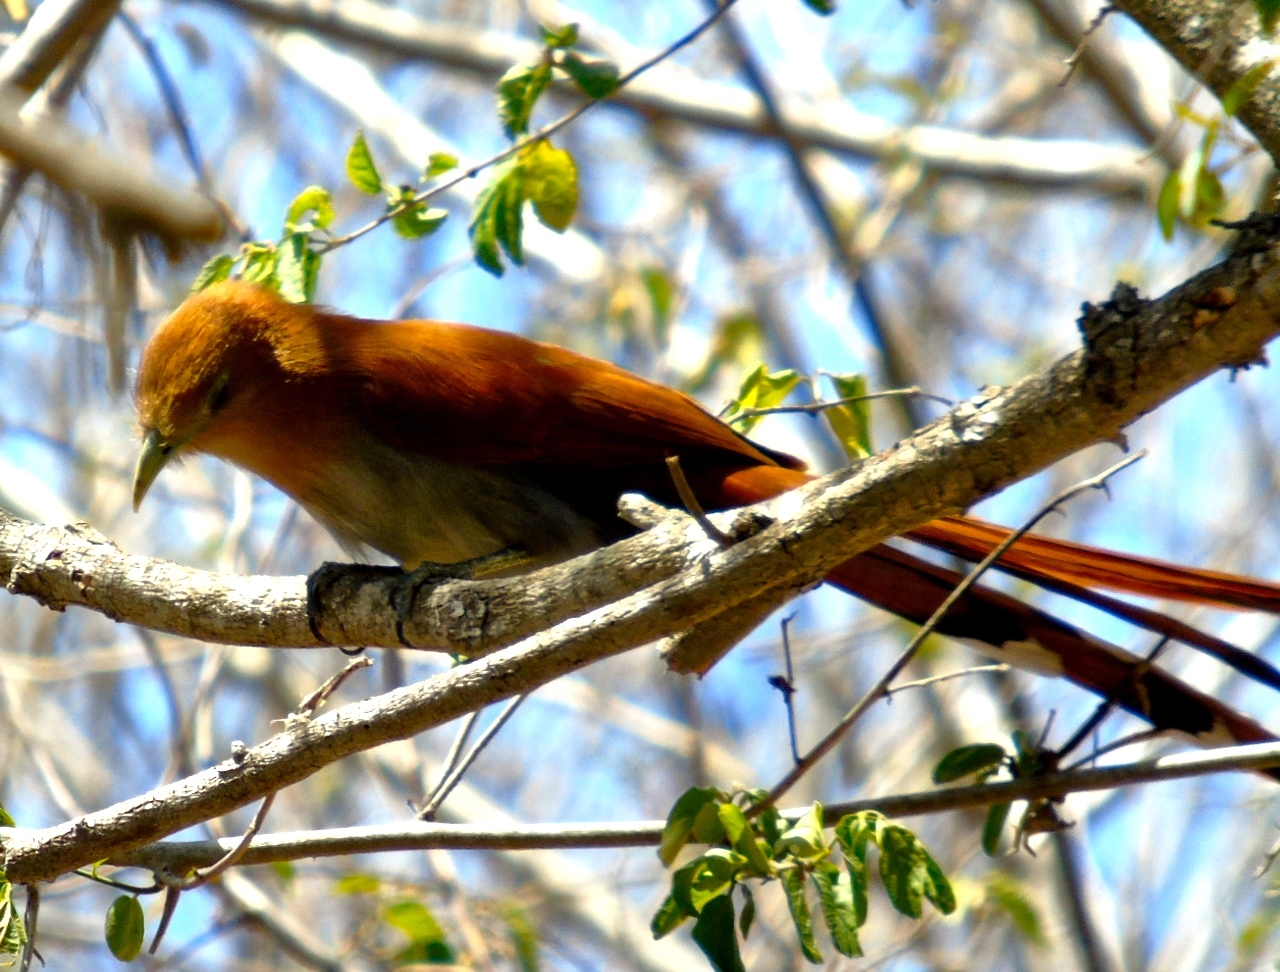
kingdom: Animalia
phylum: Chordata
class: Aves
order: Cuculiformes
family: Cuculidae
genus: Piaya
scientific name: Piaya cayana
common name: Squirrel cuckoo
